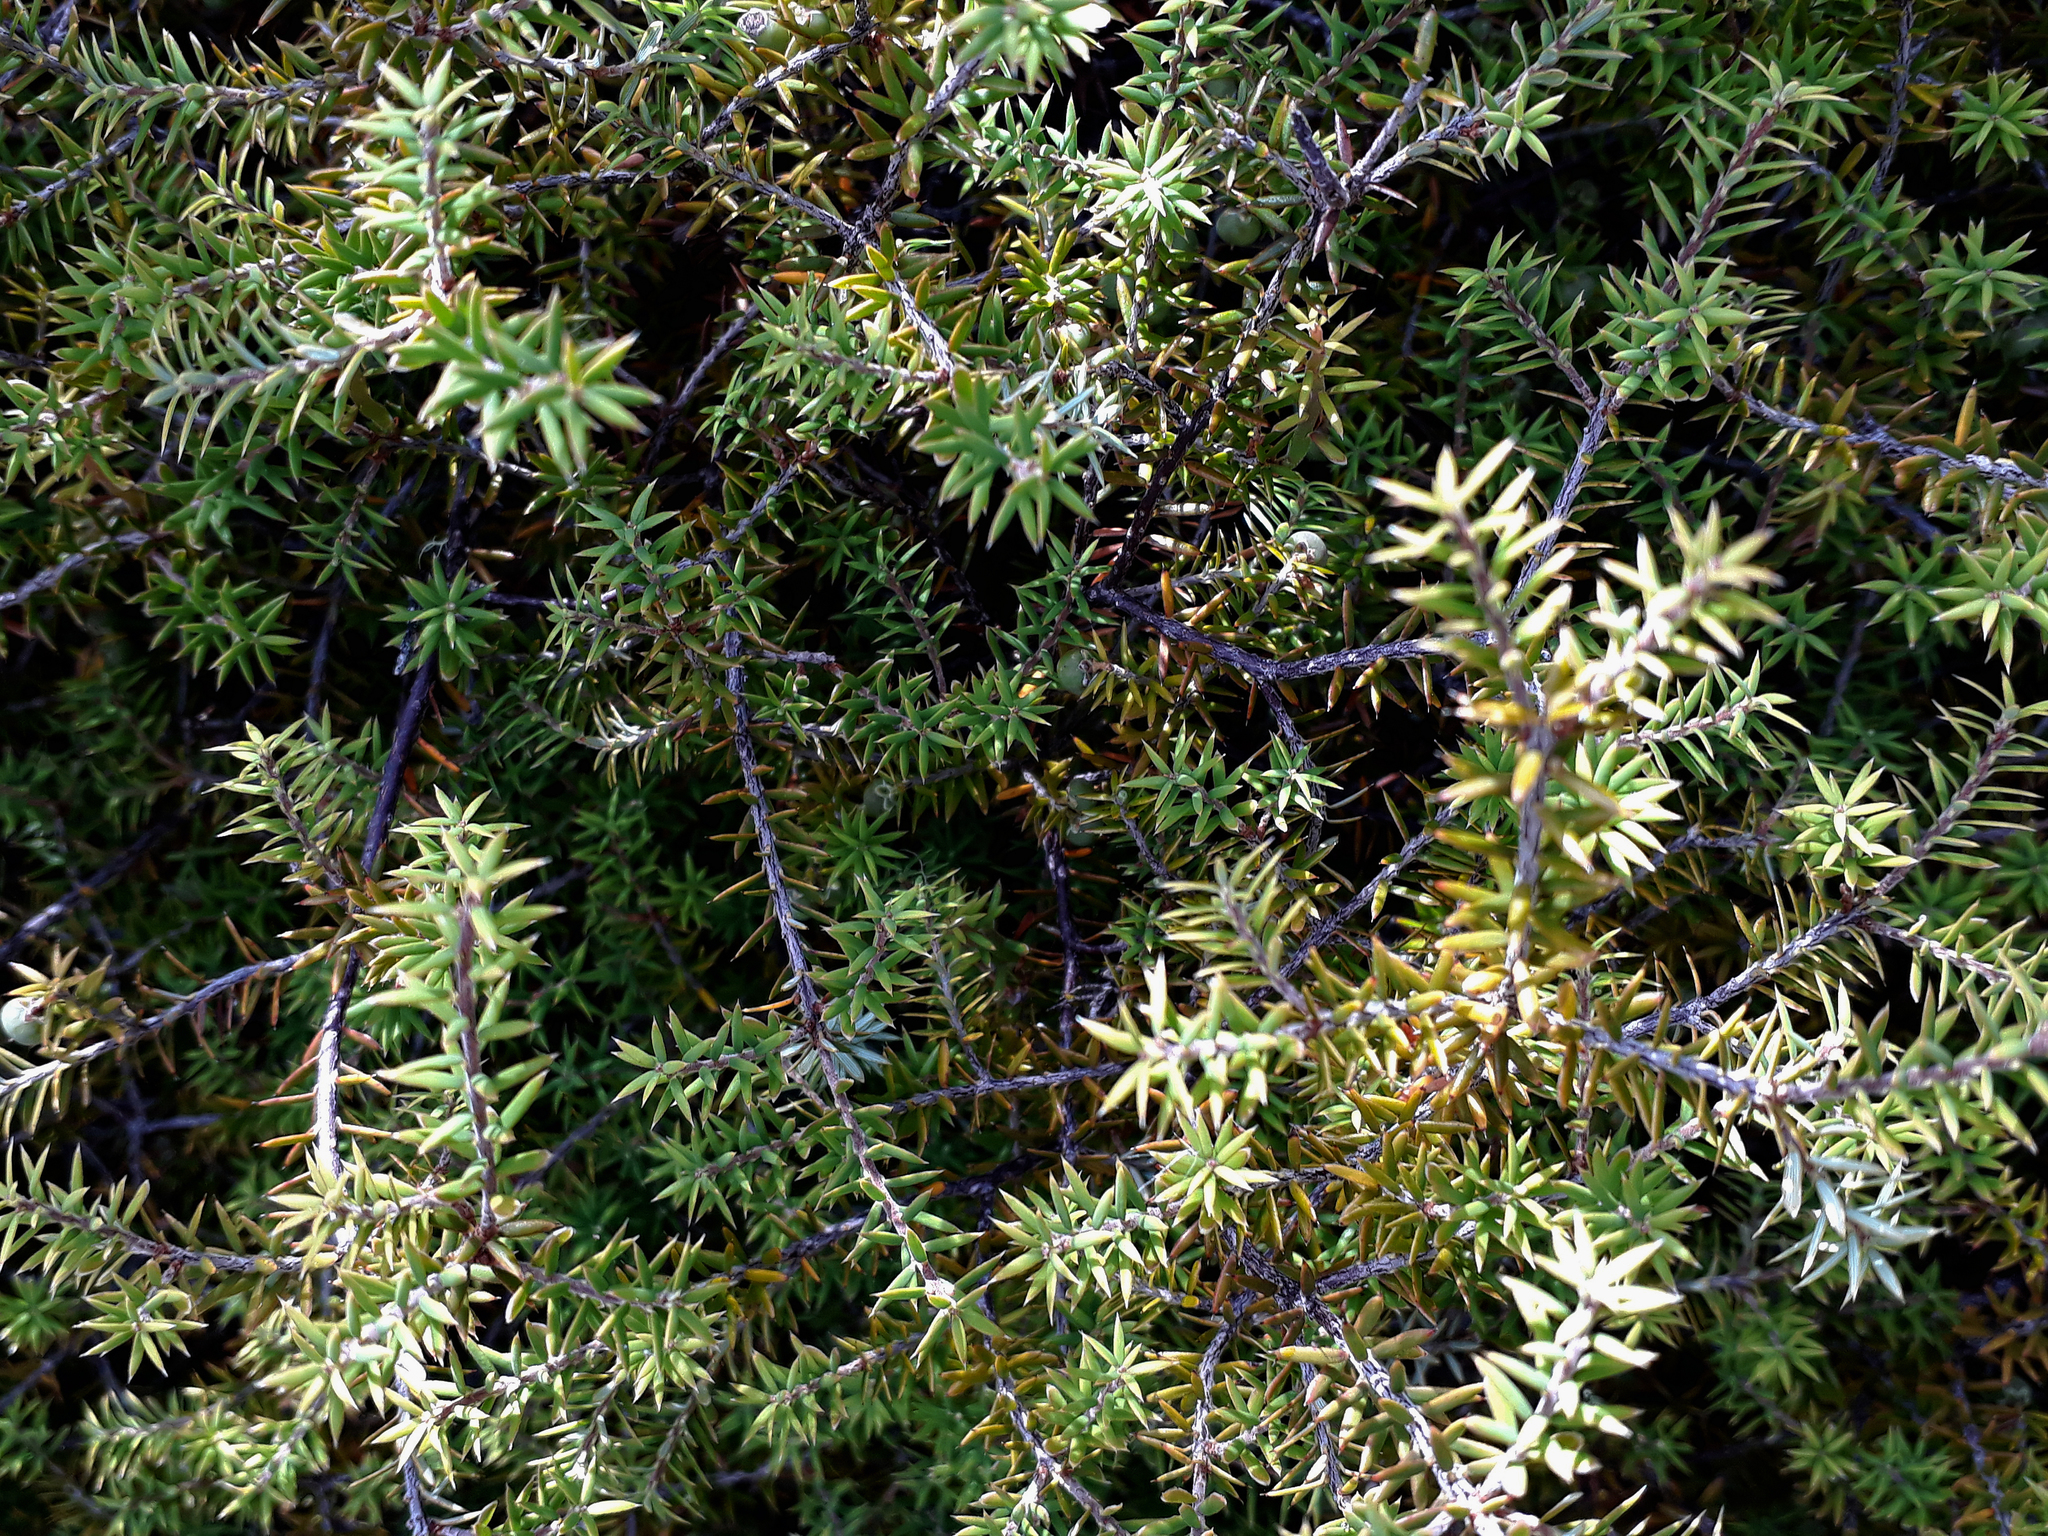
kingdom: Plantae
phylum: Tracheophyta
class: Magnoliopsida
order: Ericales
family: Ericaceae
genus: Leptecophylla
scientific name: Leptecophylla juniperina
